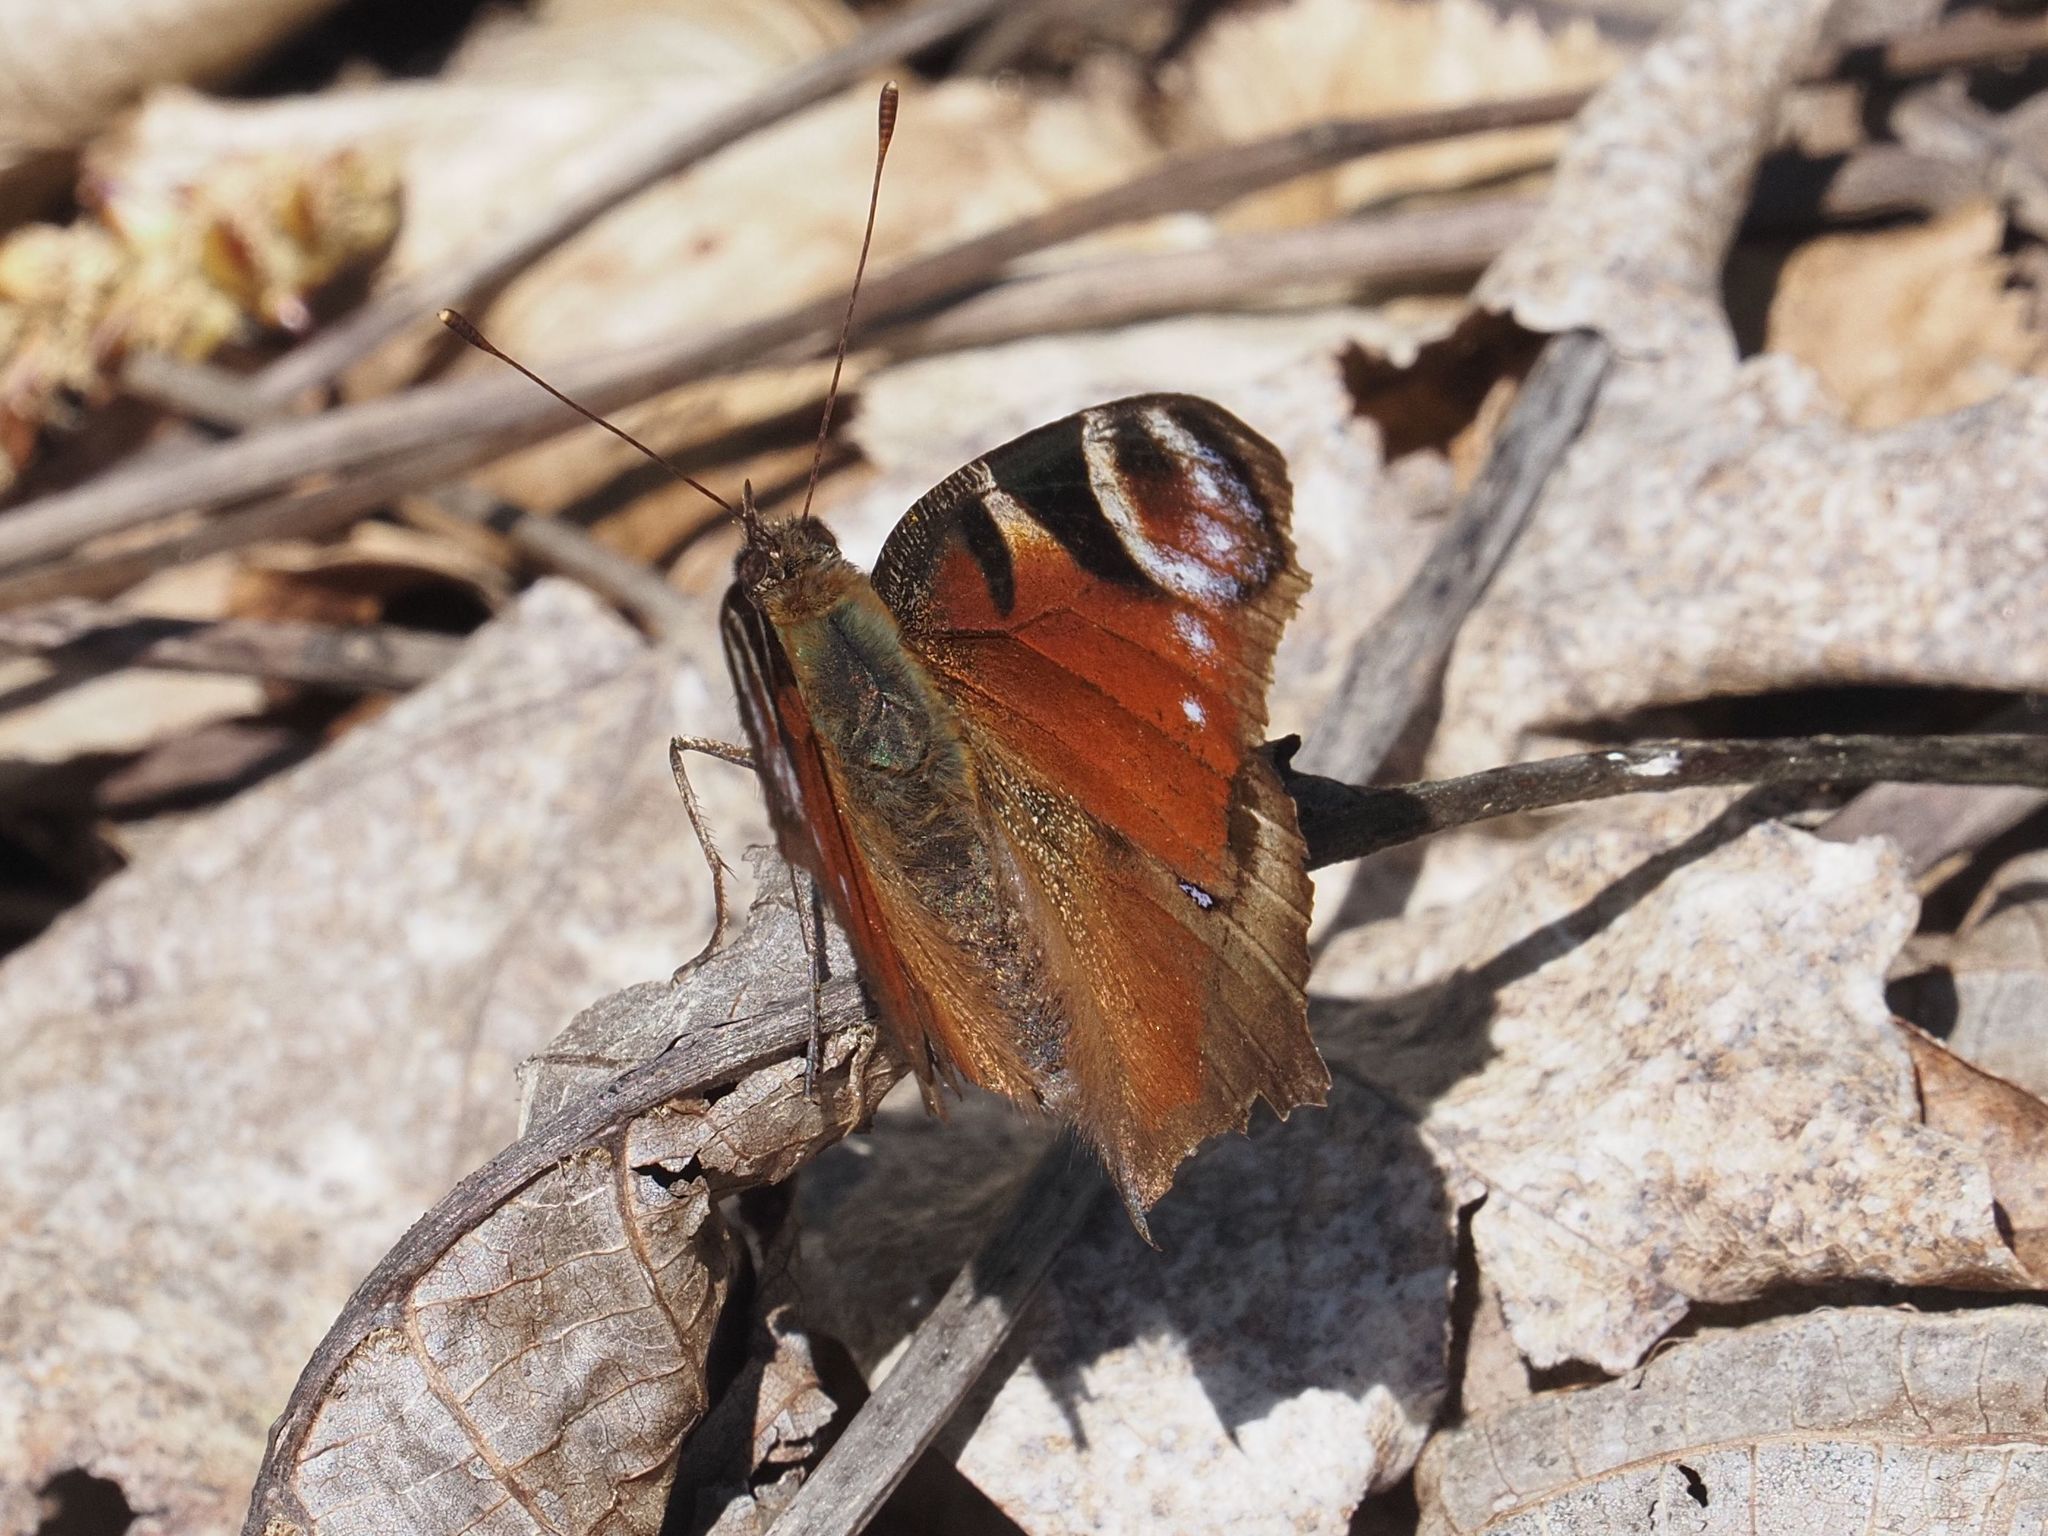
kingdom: Animalia
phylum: Arthropoda
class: Insecta
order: Lepidoptera
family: Nymphalidae
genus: Aglais
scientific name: Aglais io
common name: Peacock
